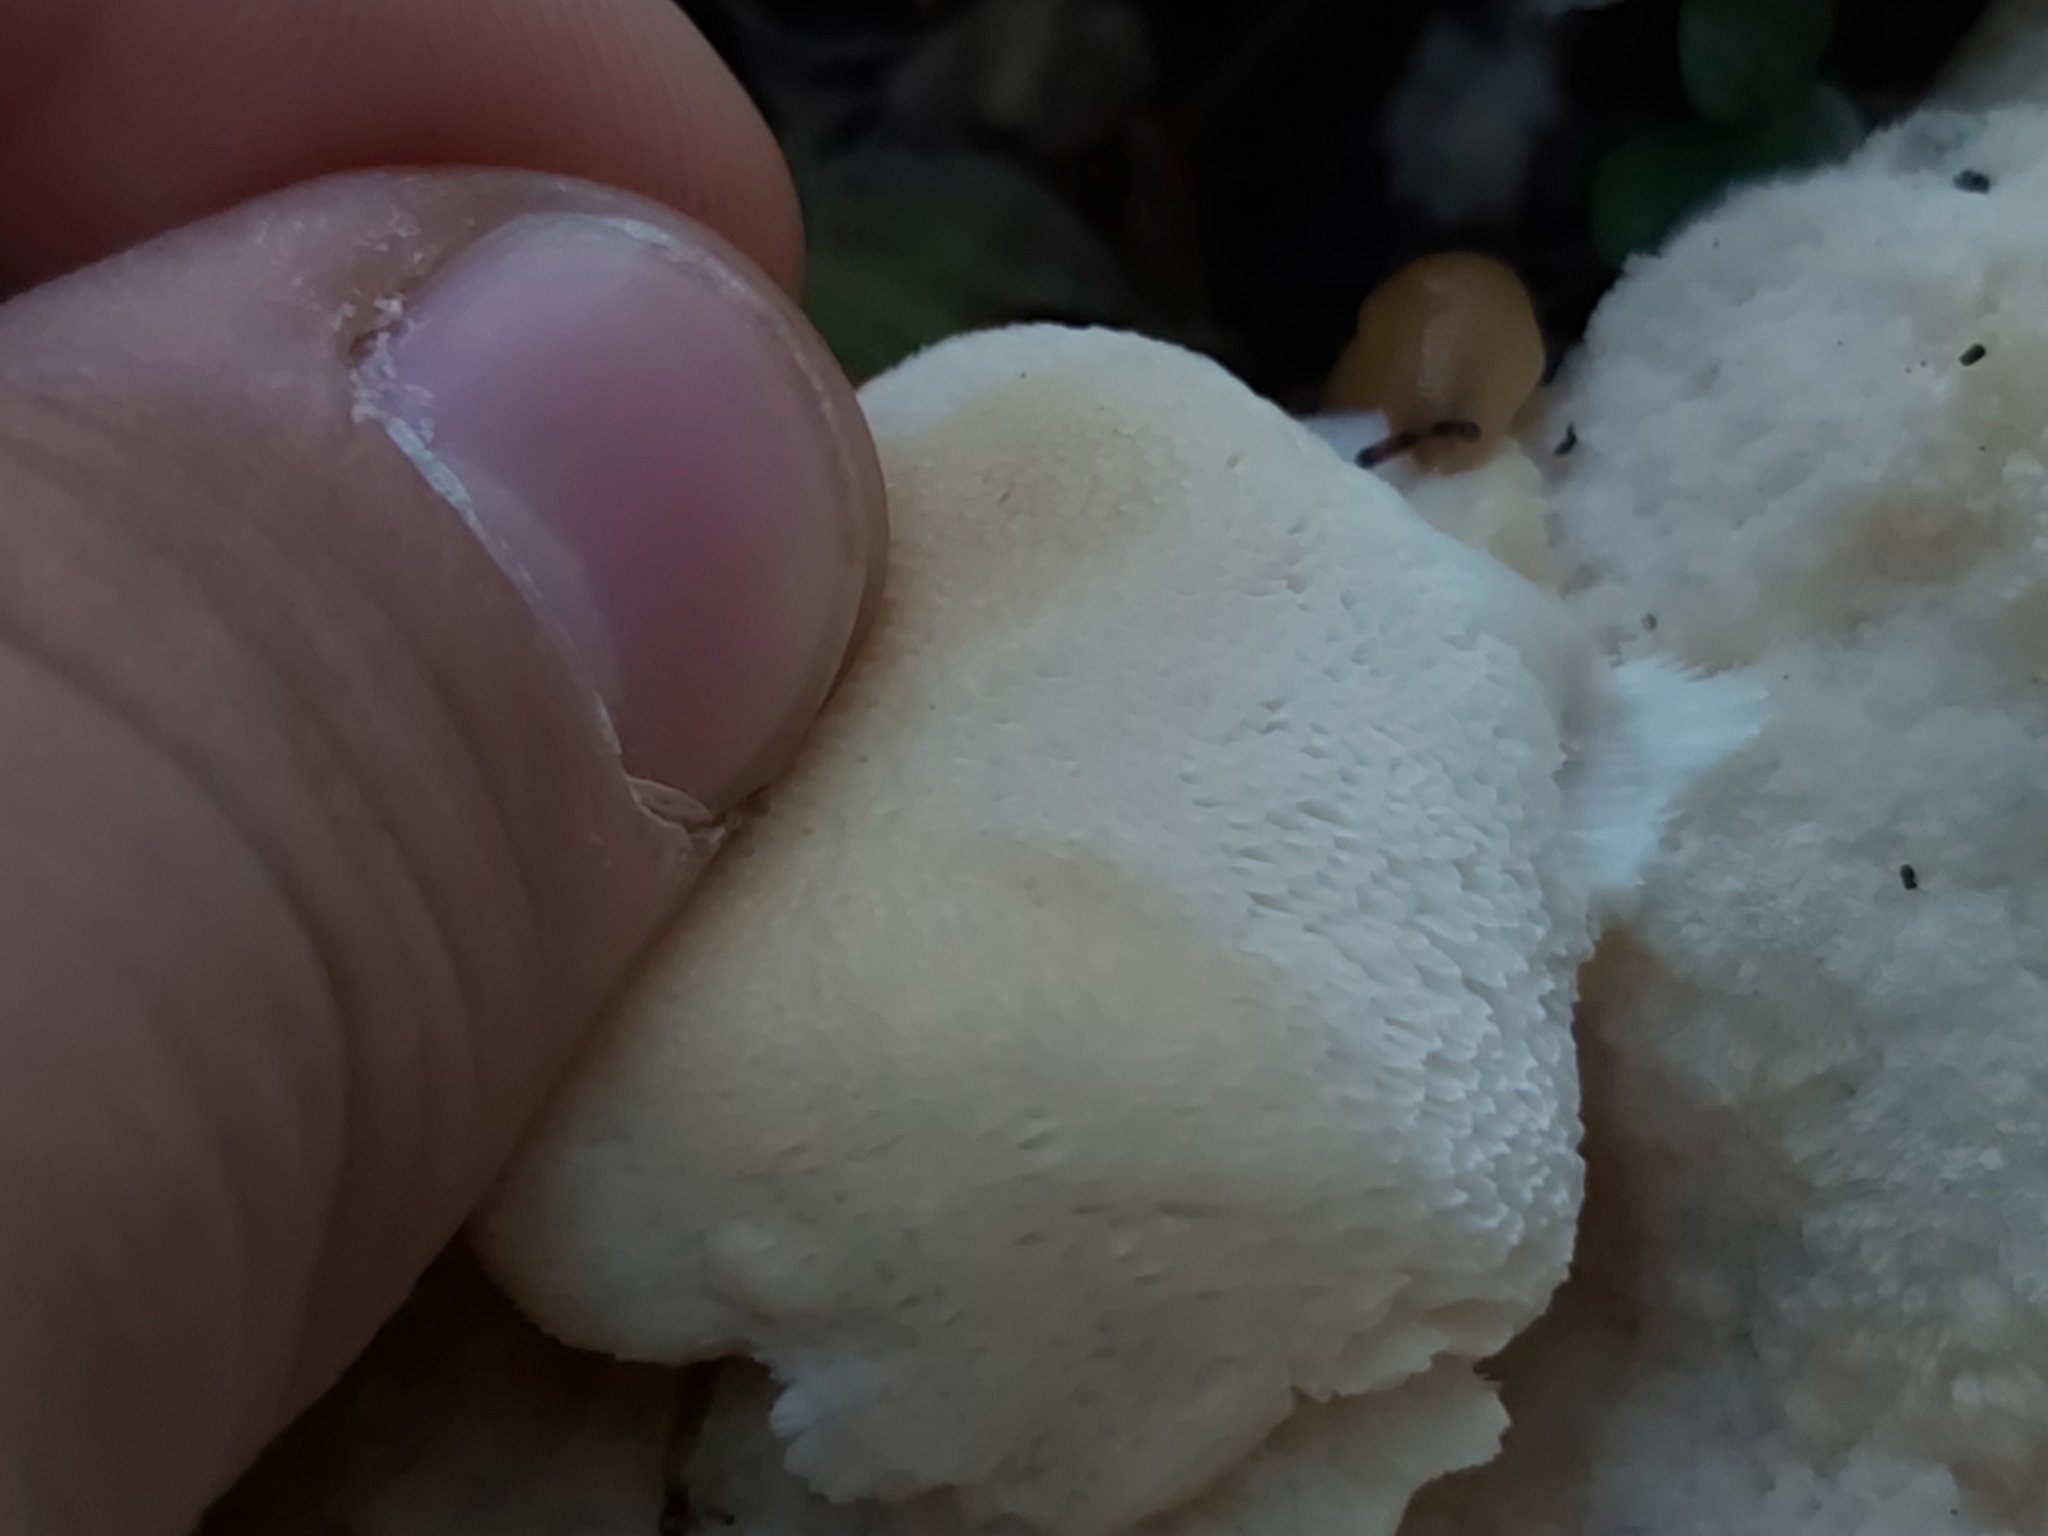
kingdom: Fungi
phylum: Basidiomycota
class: Agaricomycetes
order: Polyporales
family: Fomitopsidaceae
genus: Climacocystis
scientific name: Climacocystis borealis
